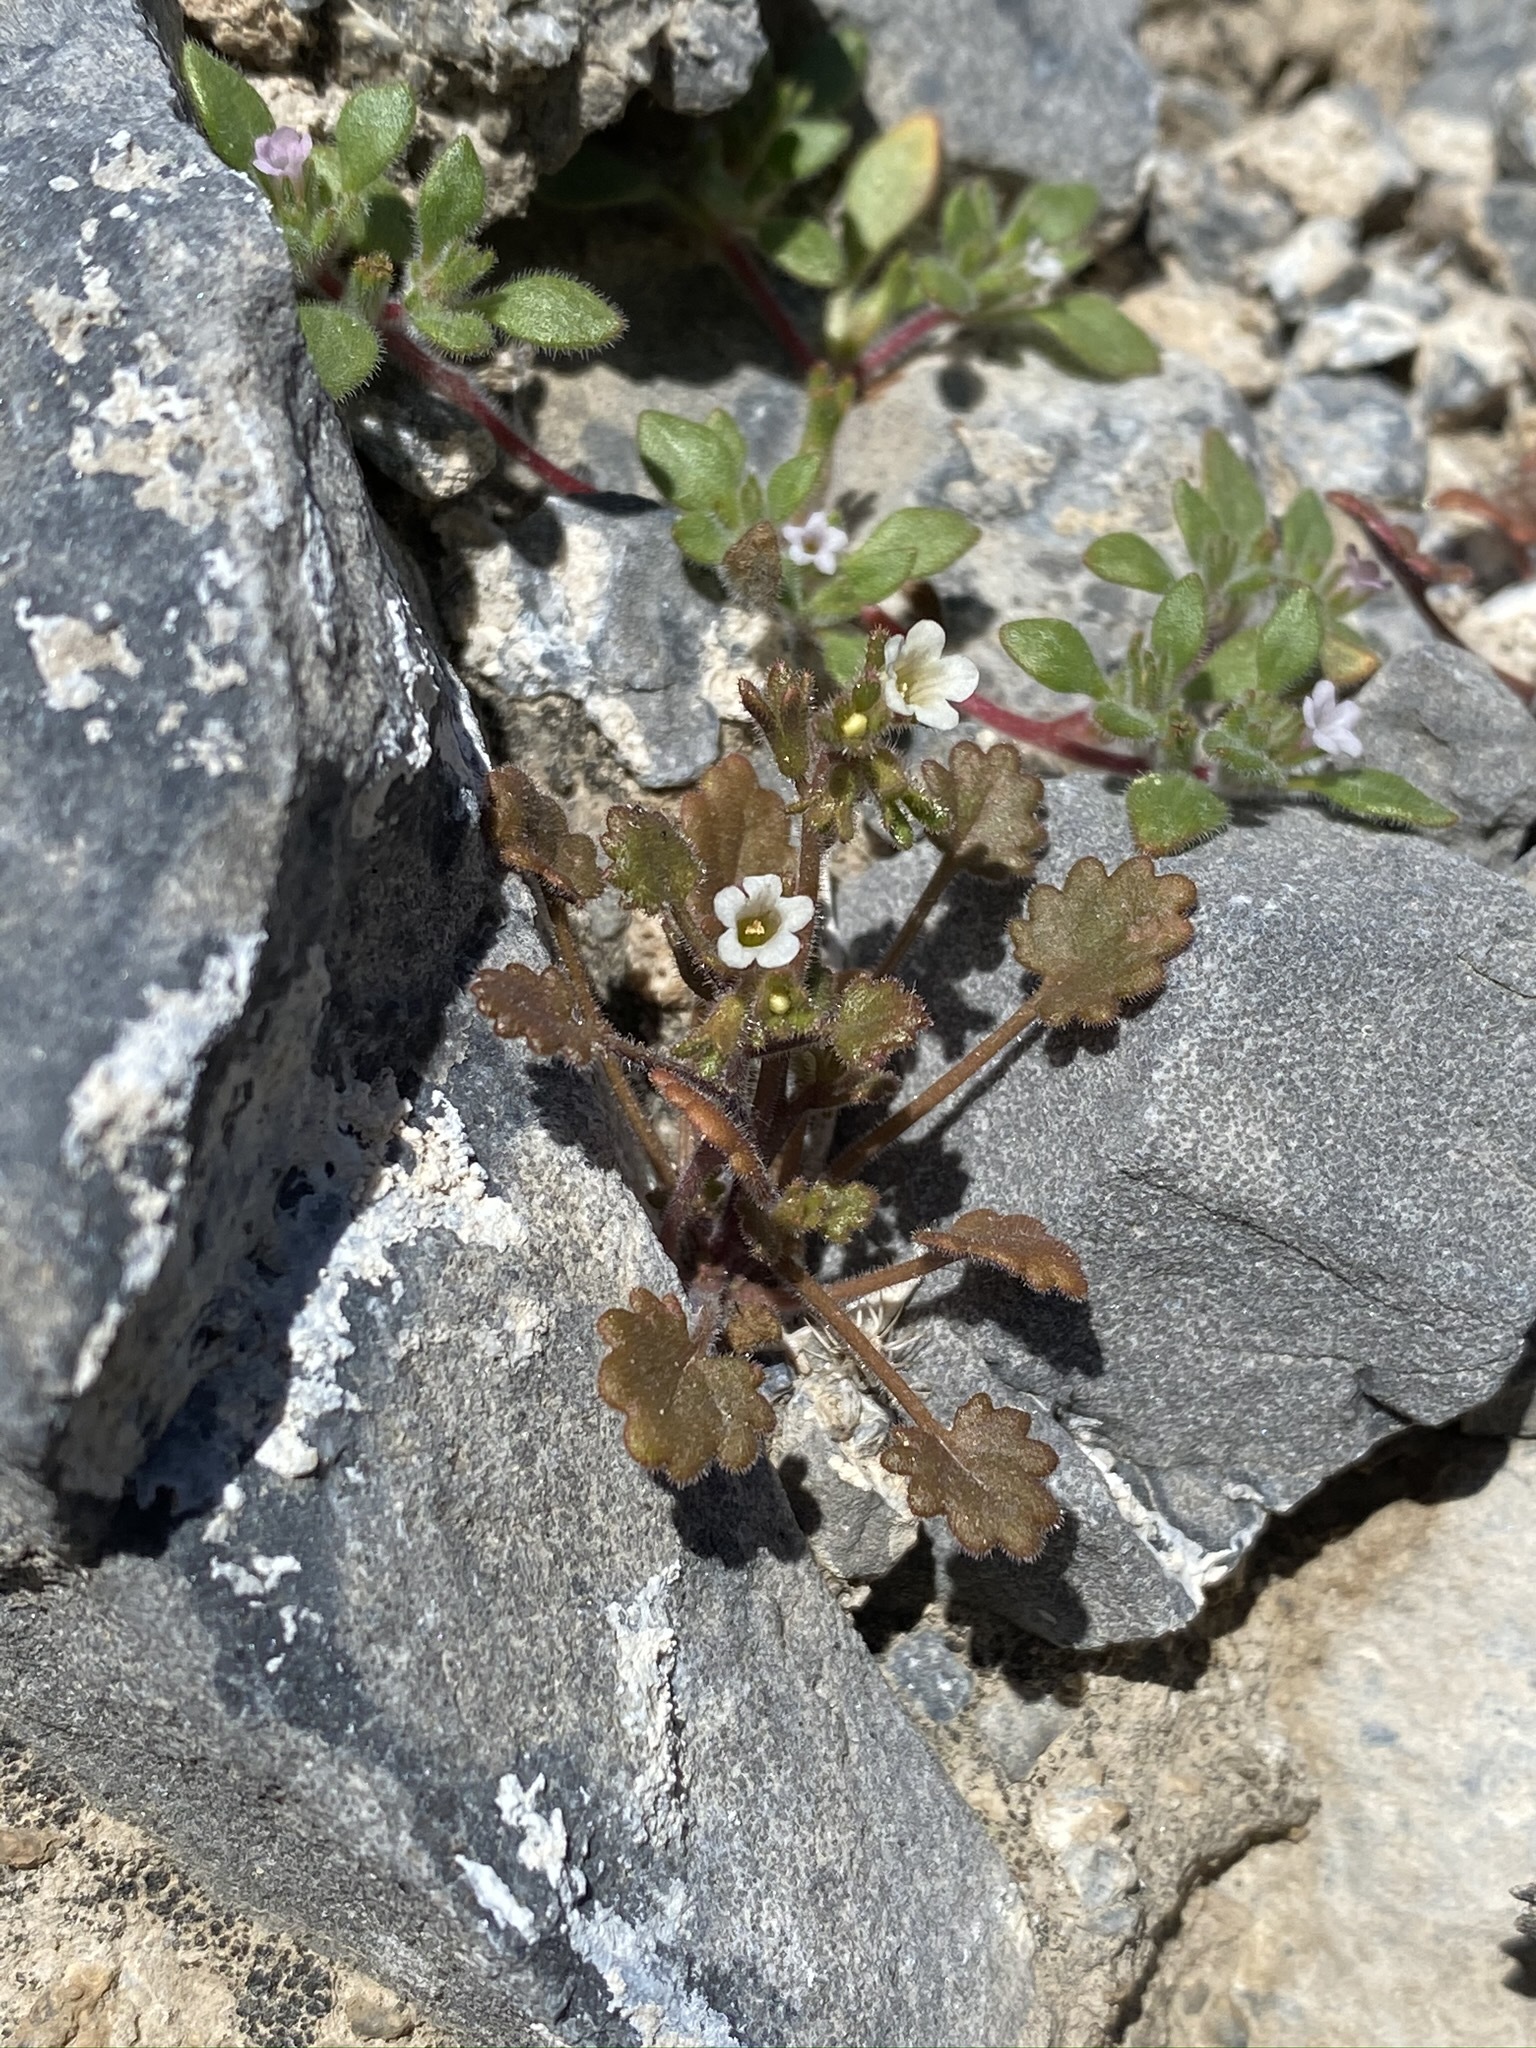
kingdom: Plantae
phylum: Tracheophyta
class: Magnoliopsida
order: Boraginales
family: Hydrophyllaceae
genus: Phacelia
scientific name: Phacelia rotundifolia
